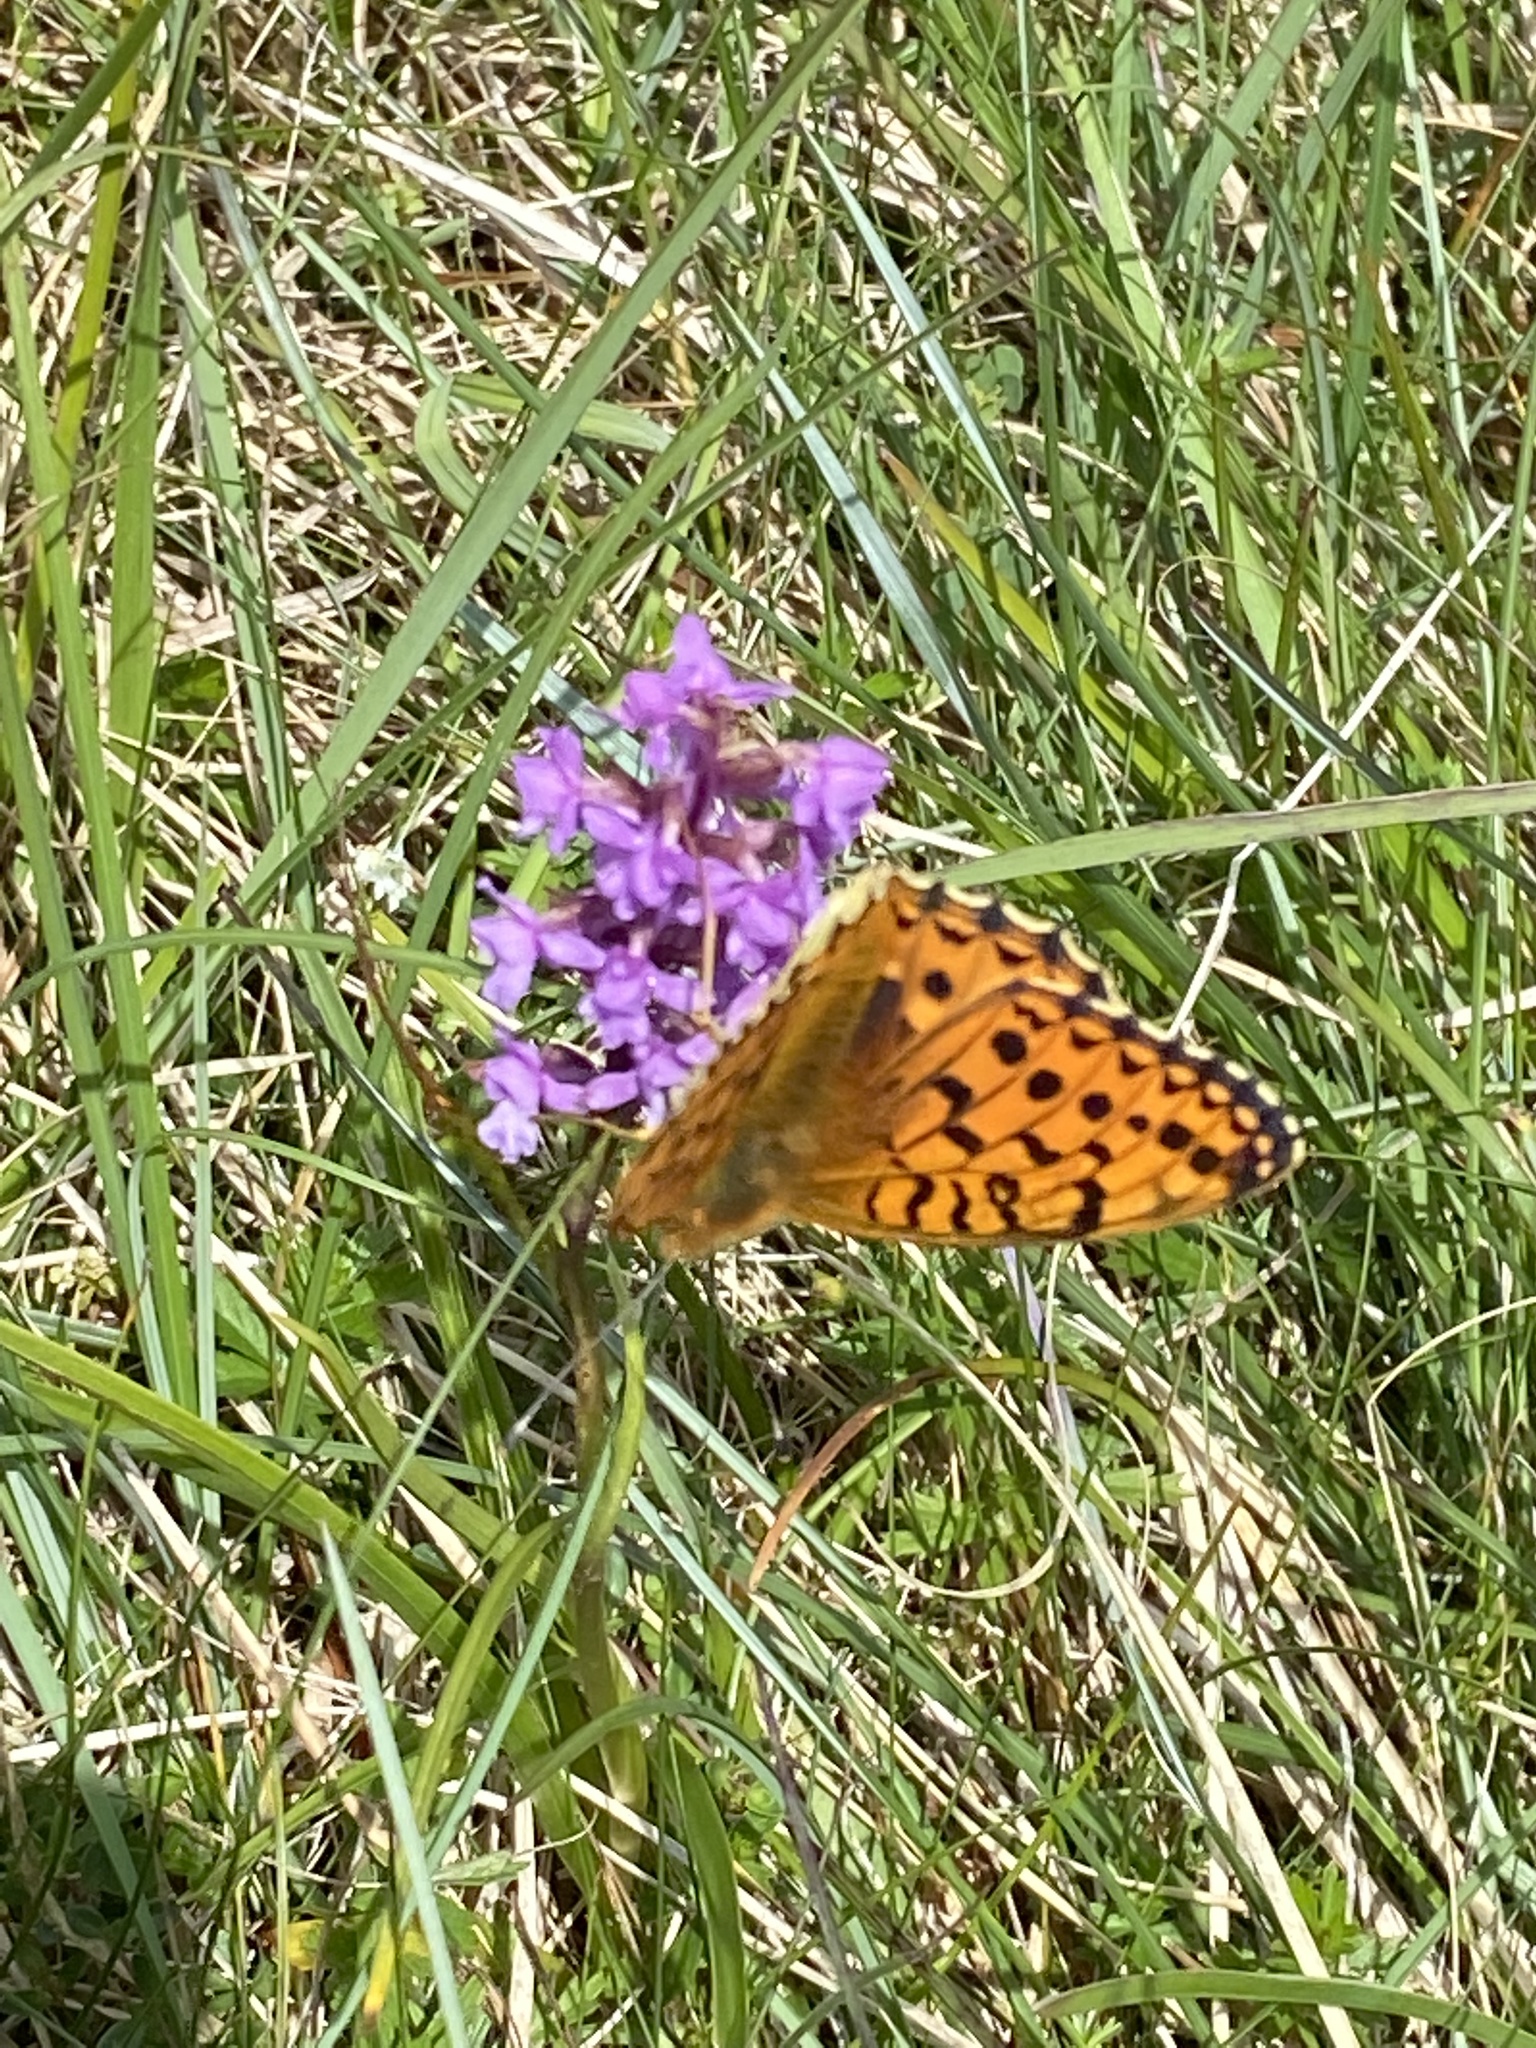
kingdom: Animalia
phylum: Arthropoda
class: Insecta
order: Lepidoptera
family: Nymphalidae
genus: Speyeria
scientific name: Speyeria aglaja
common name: Dark green fritillary
